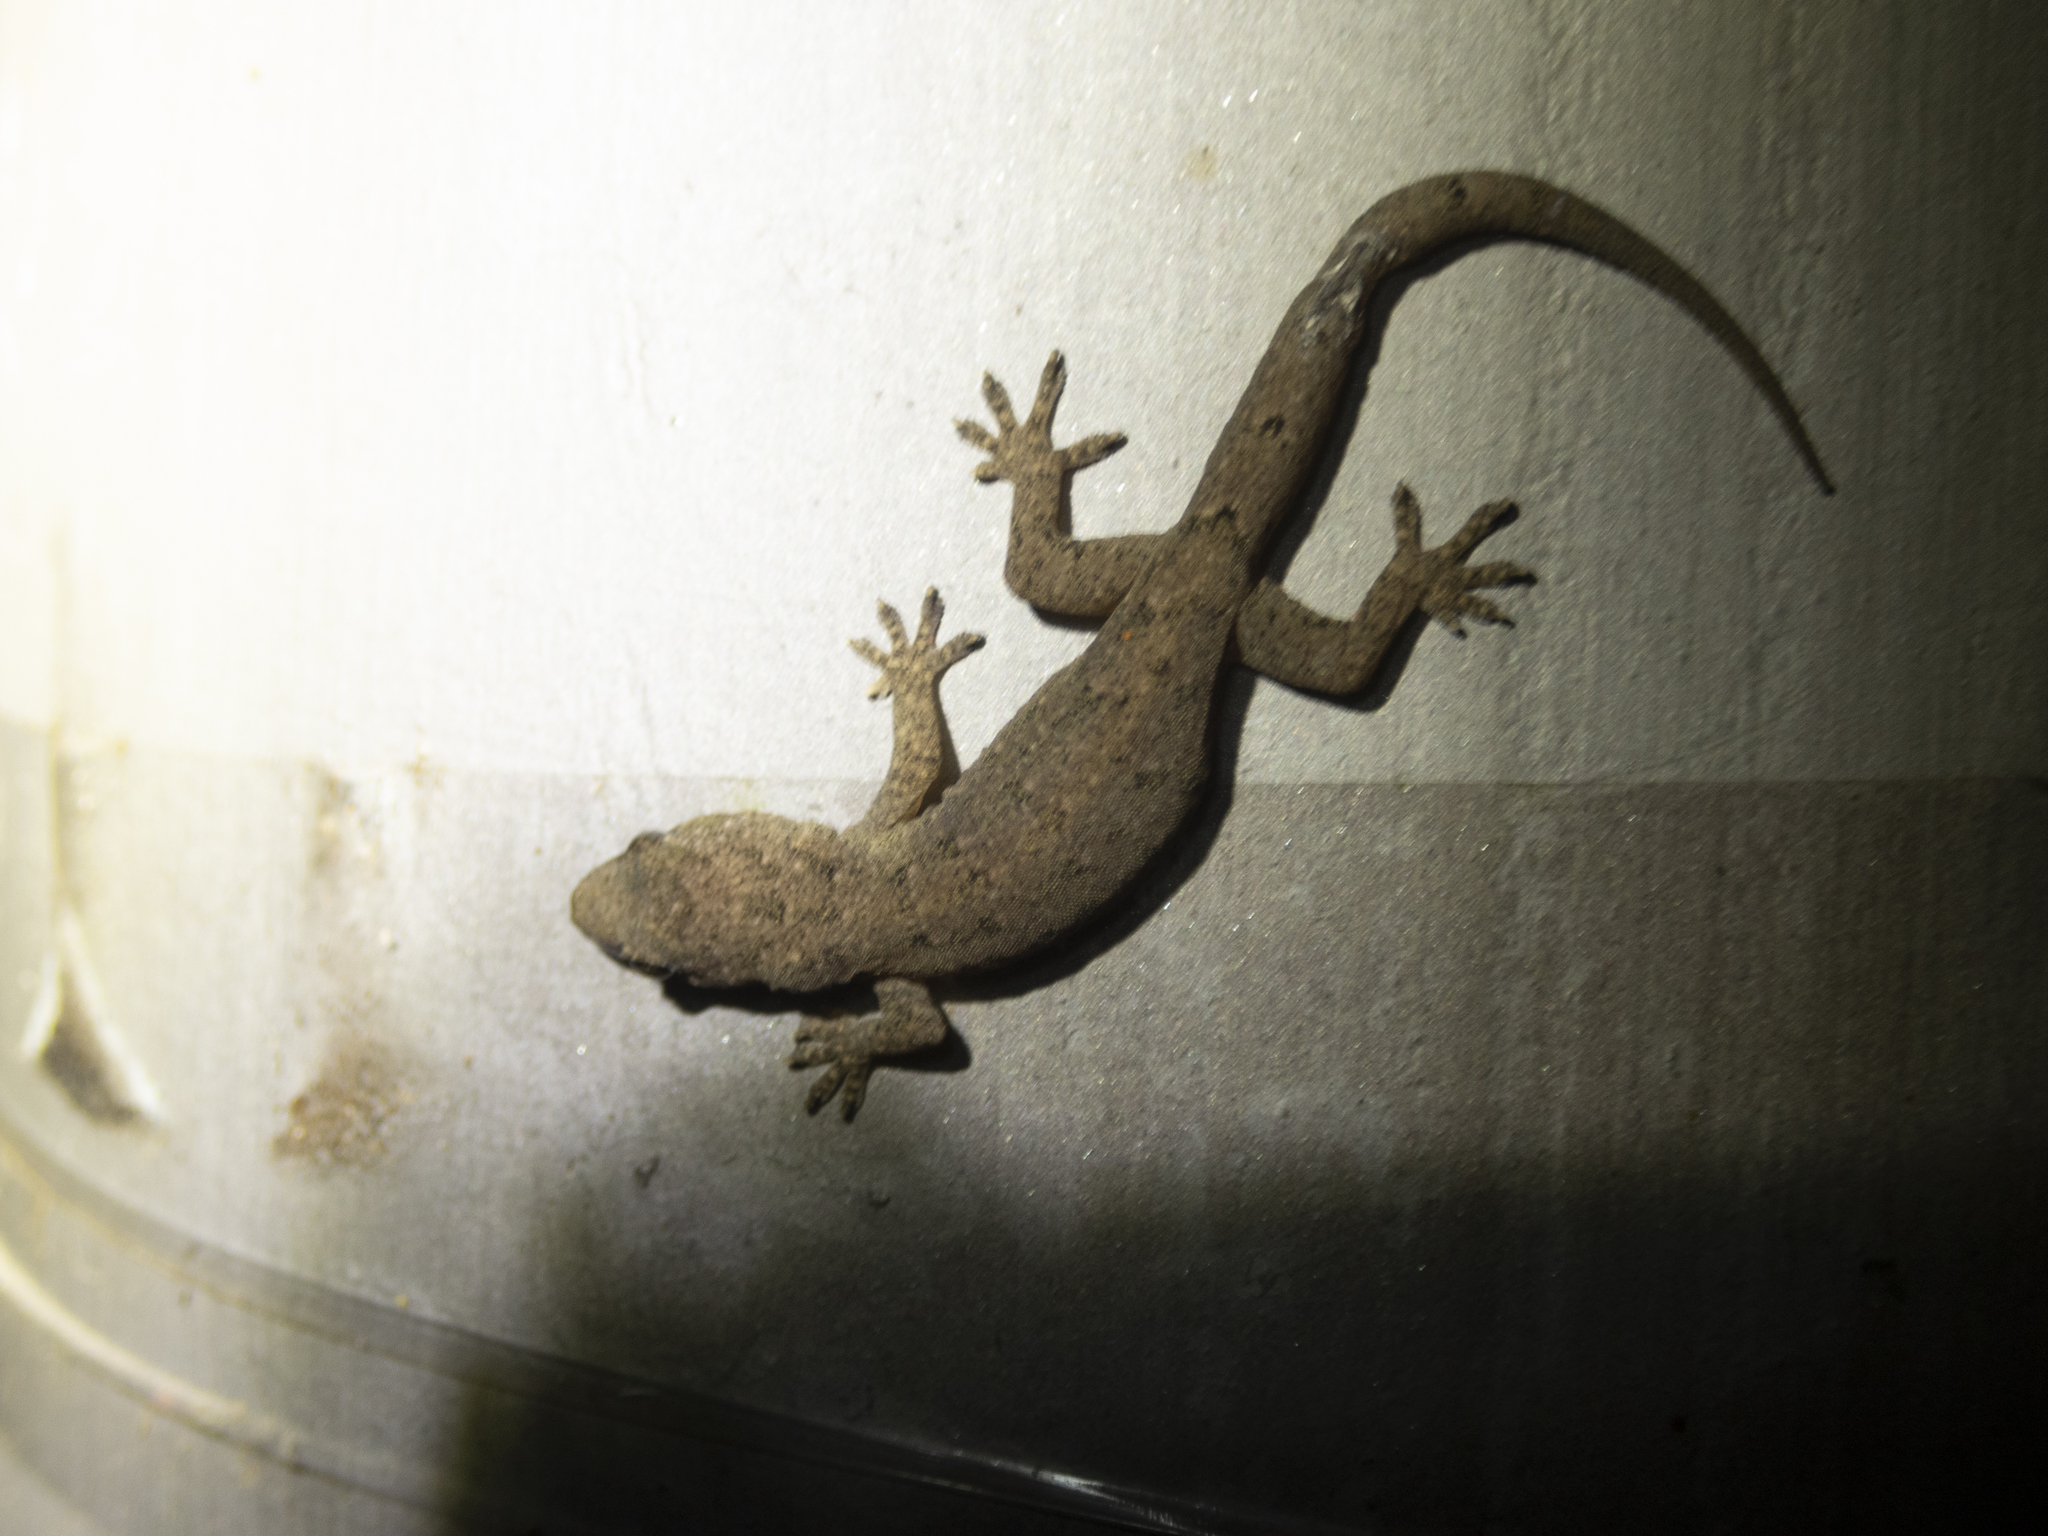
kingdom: Animalia
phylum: Chordata
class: Squamata
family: Gekkonidae
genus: Hemidactylus
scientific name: Hemidactylus bowringii
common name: Oriental leaf-toed gecko
